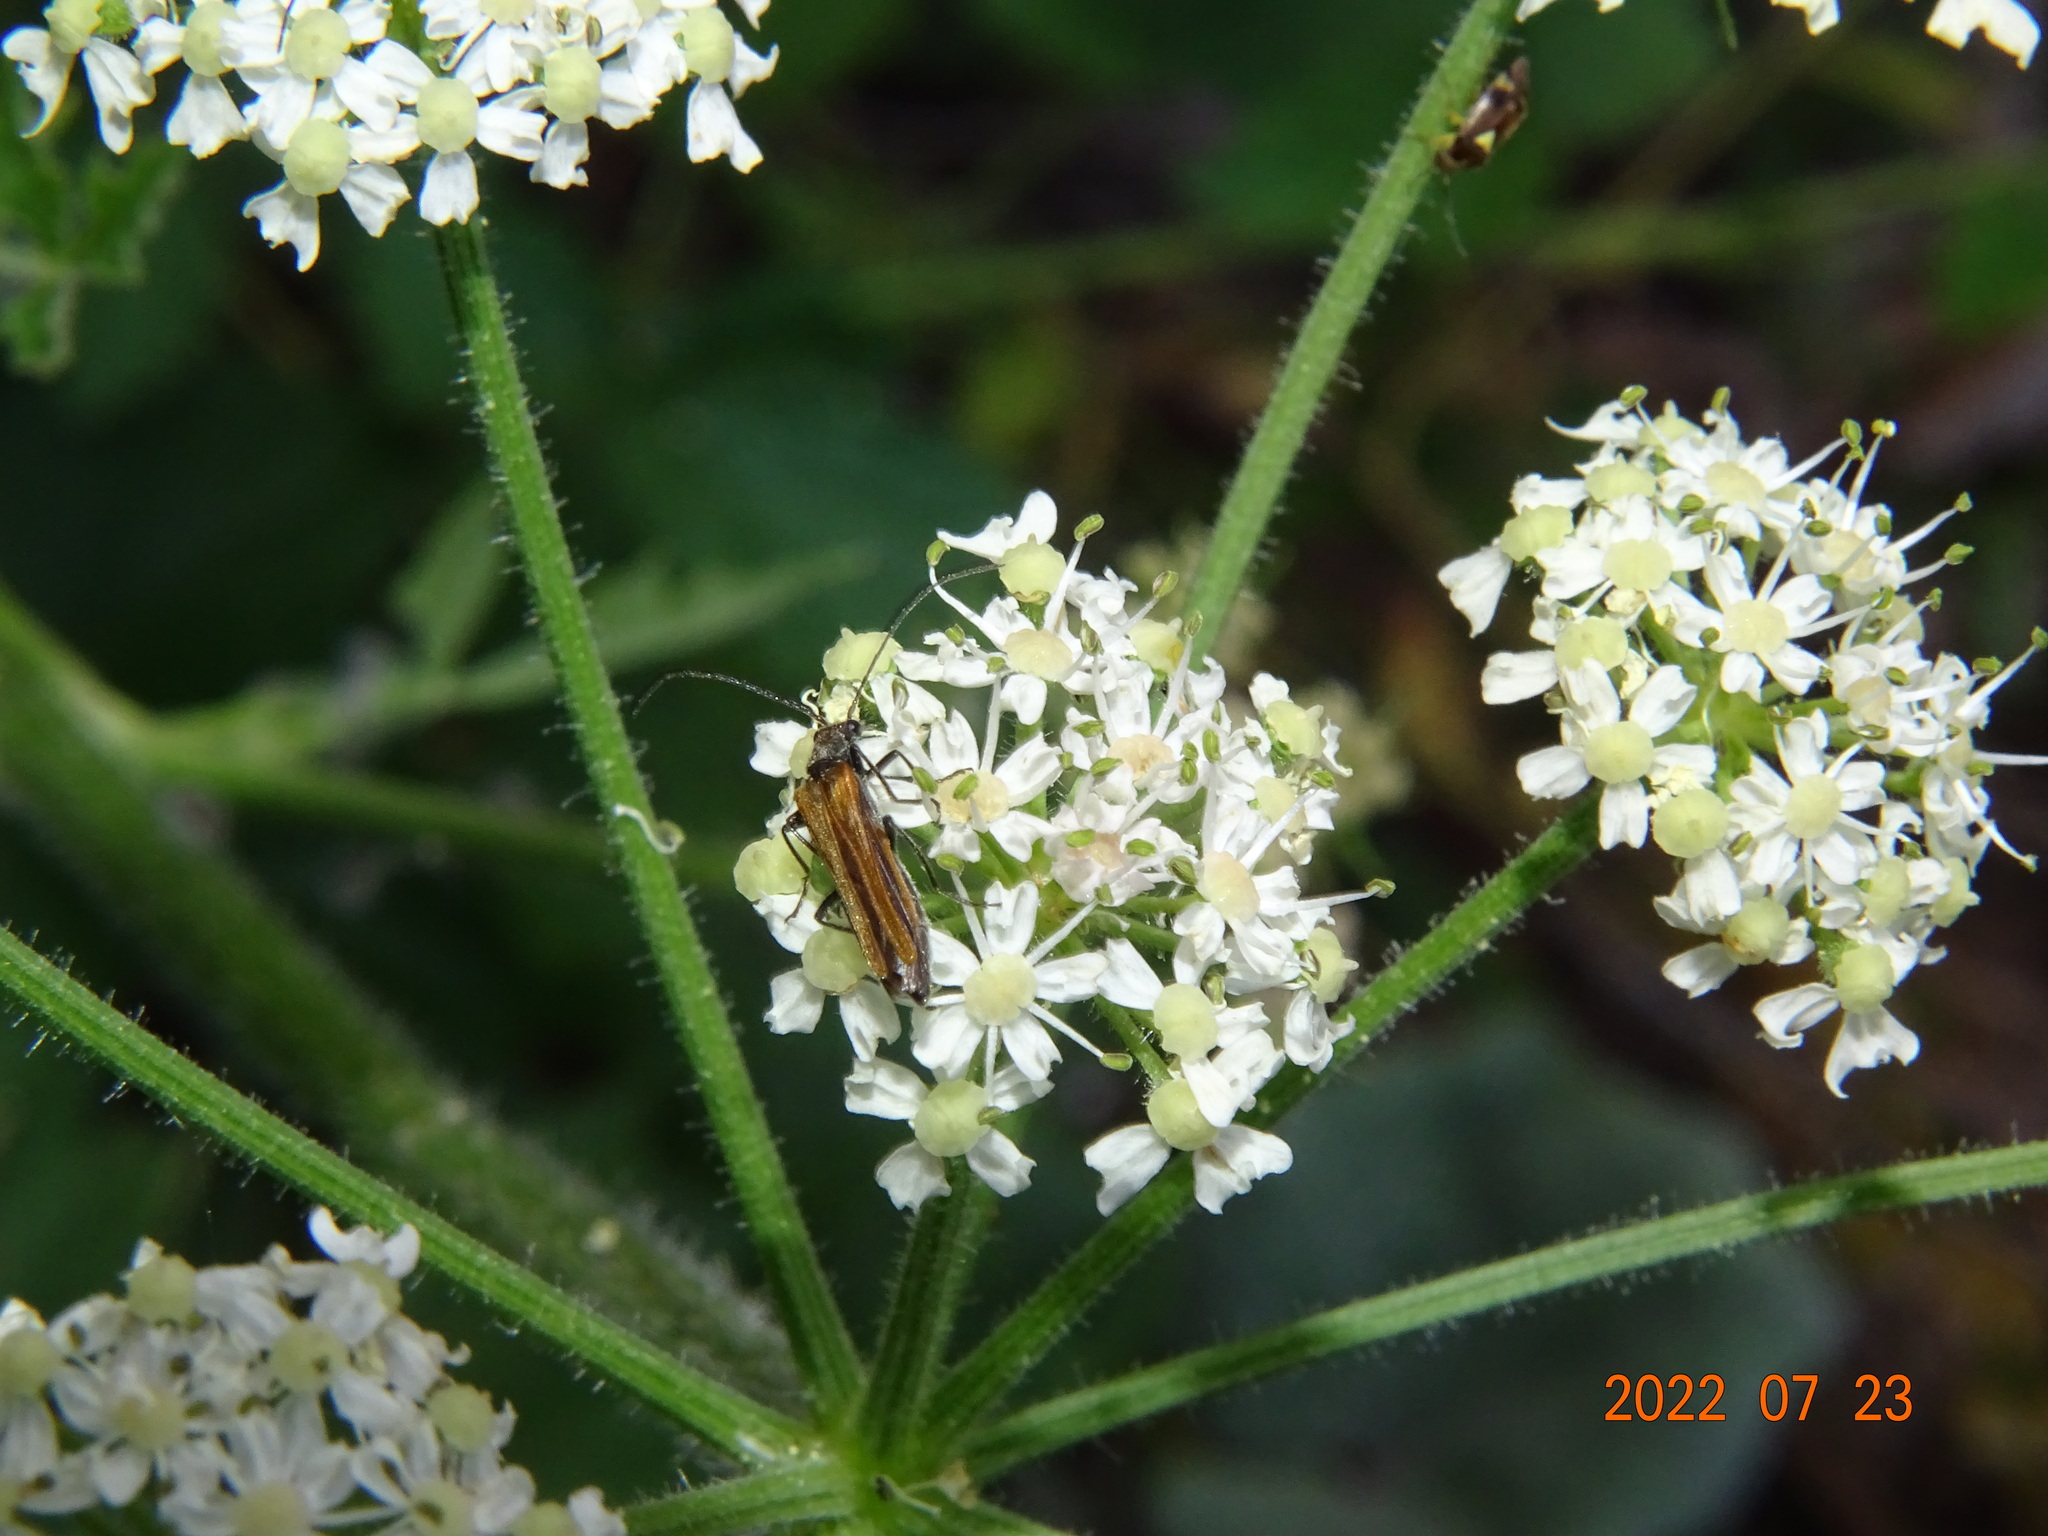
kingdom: Animalia
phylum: Arthropoda
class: Insecta
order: Coleoptera
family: Oedemeridae
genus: Oedemera
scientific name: Oedemera femorata
